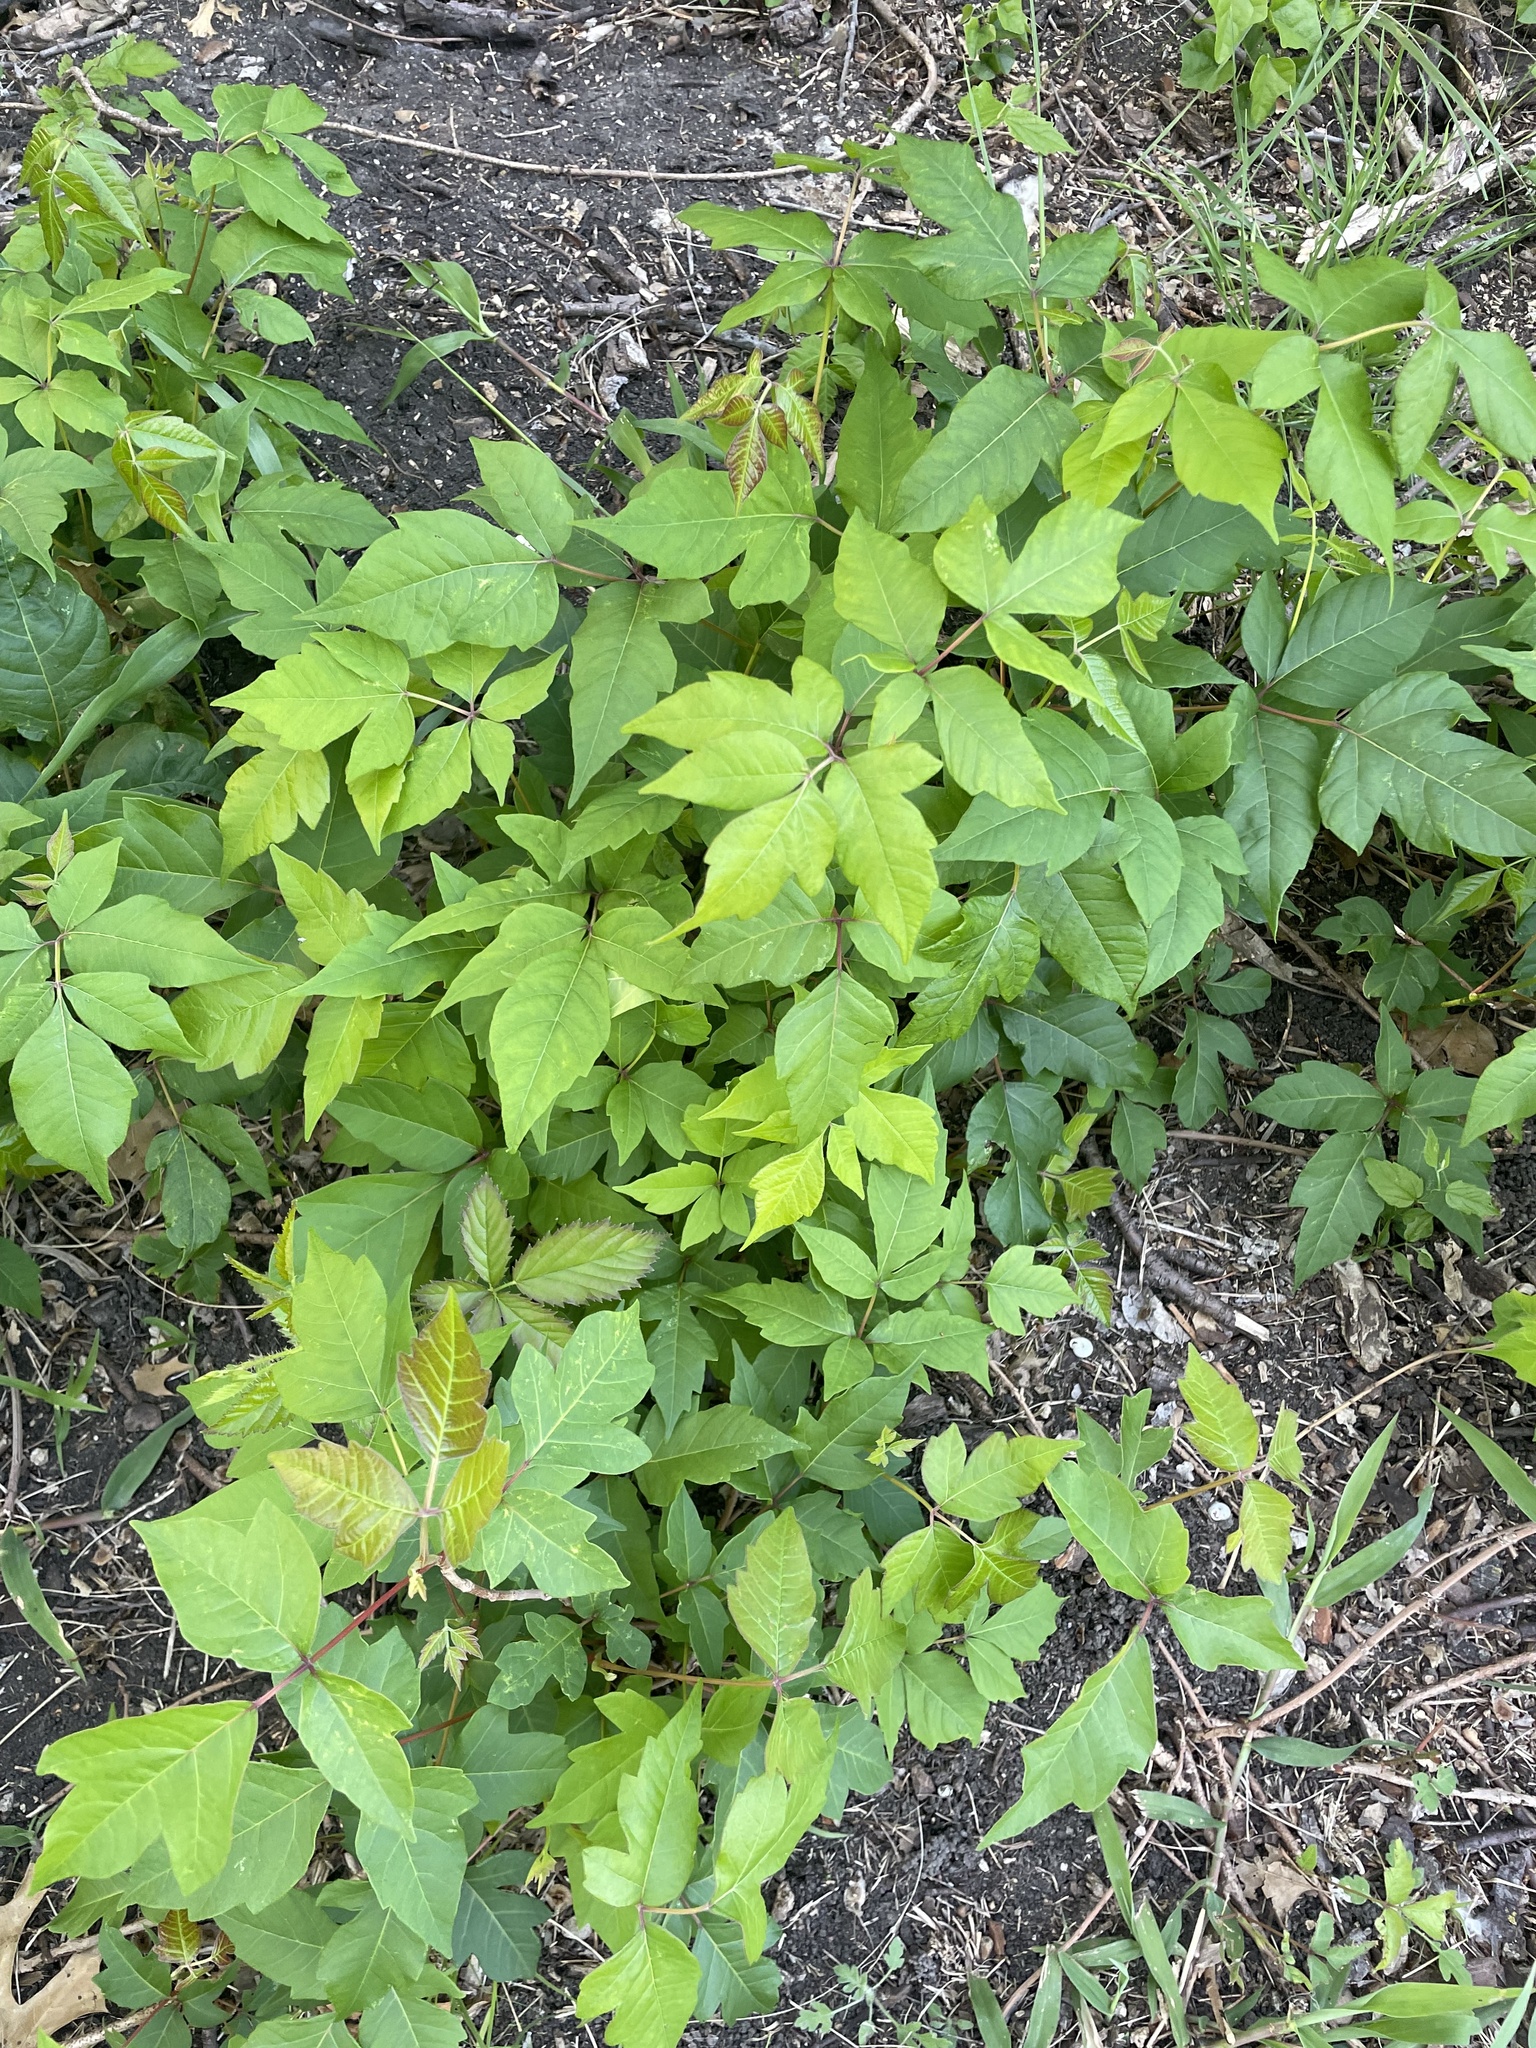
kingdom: Plantae
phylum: Tracheophyta
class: Magnoliopsida
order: Sapindales
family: Anacardiaceae
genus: Toxicodendron
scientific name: Toxicodendron radicans
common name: Poison ivy
